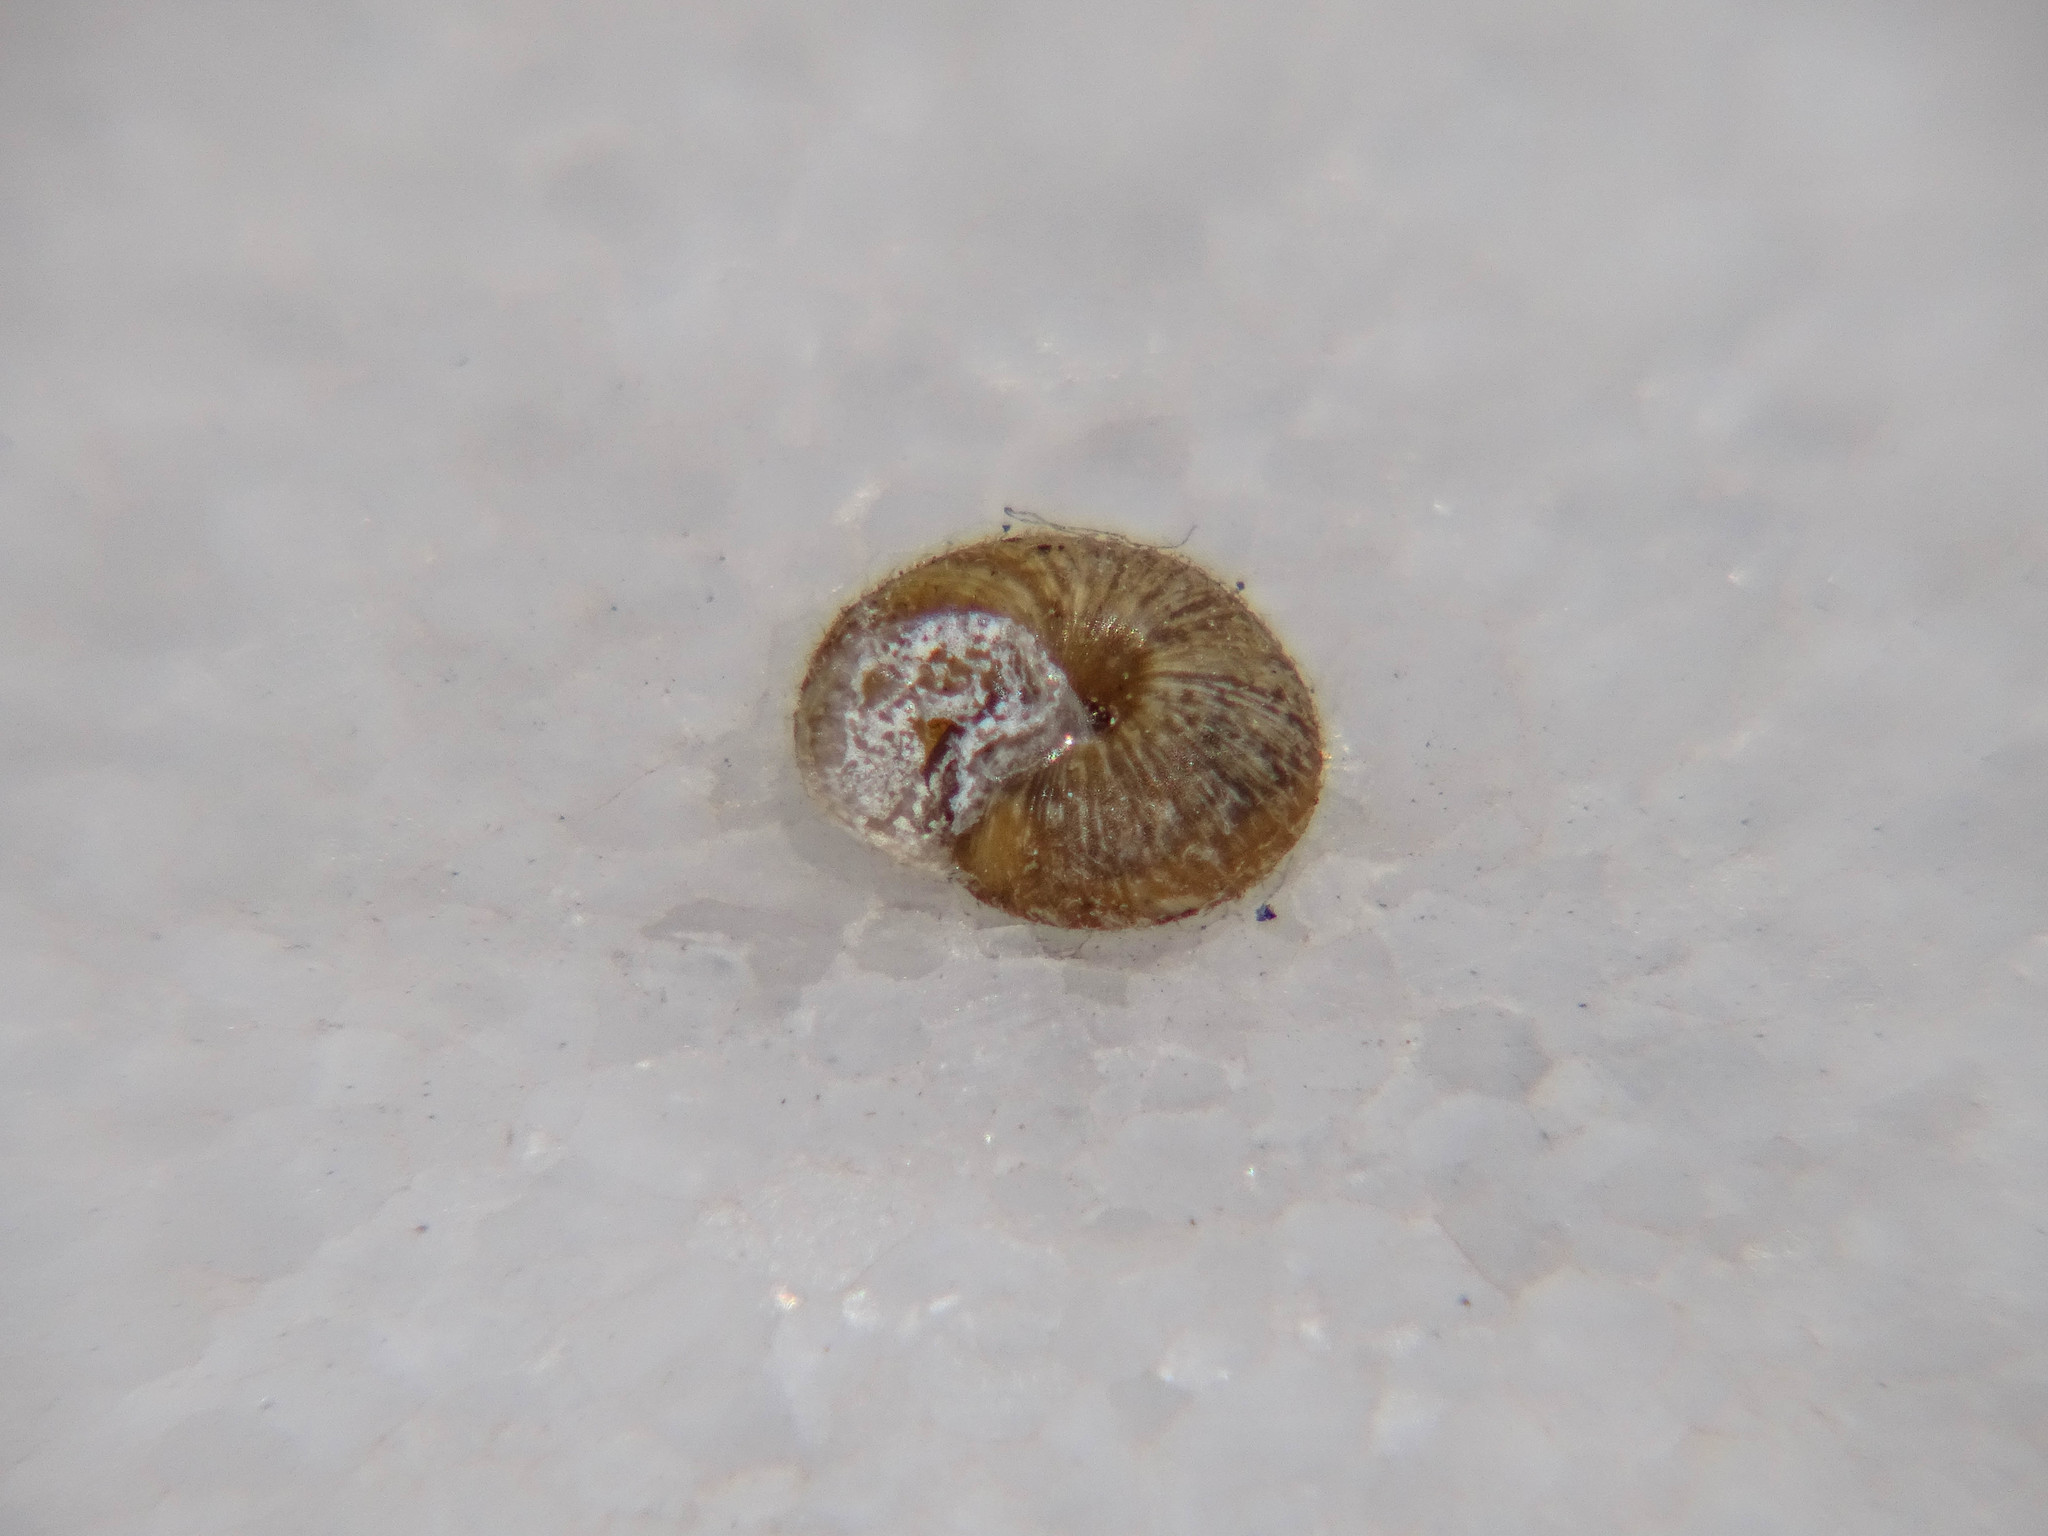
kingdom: Animalia
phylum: Mollusca
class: Gastropoda
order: Stylommatophora
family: Geomitridae
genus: Xerotricha
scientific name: Xerotricha conspurcata
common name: Snail
